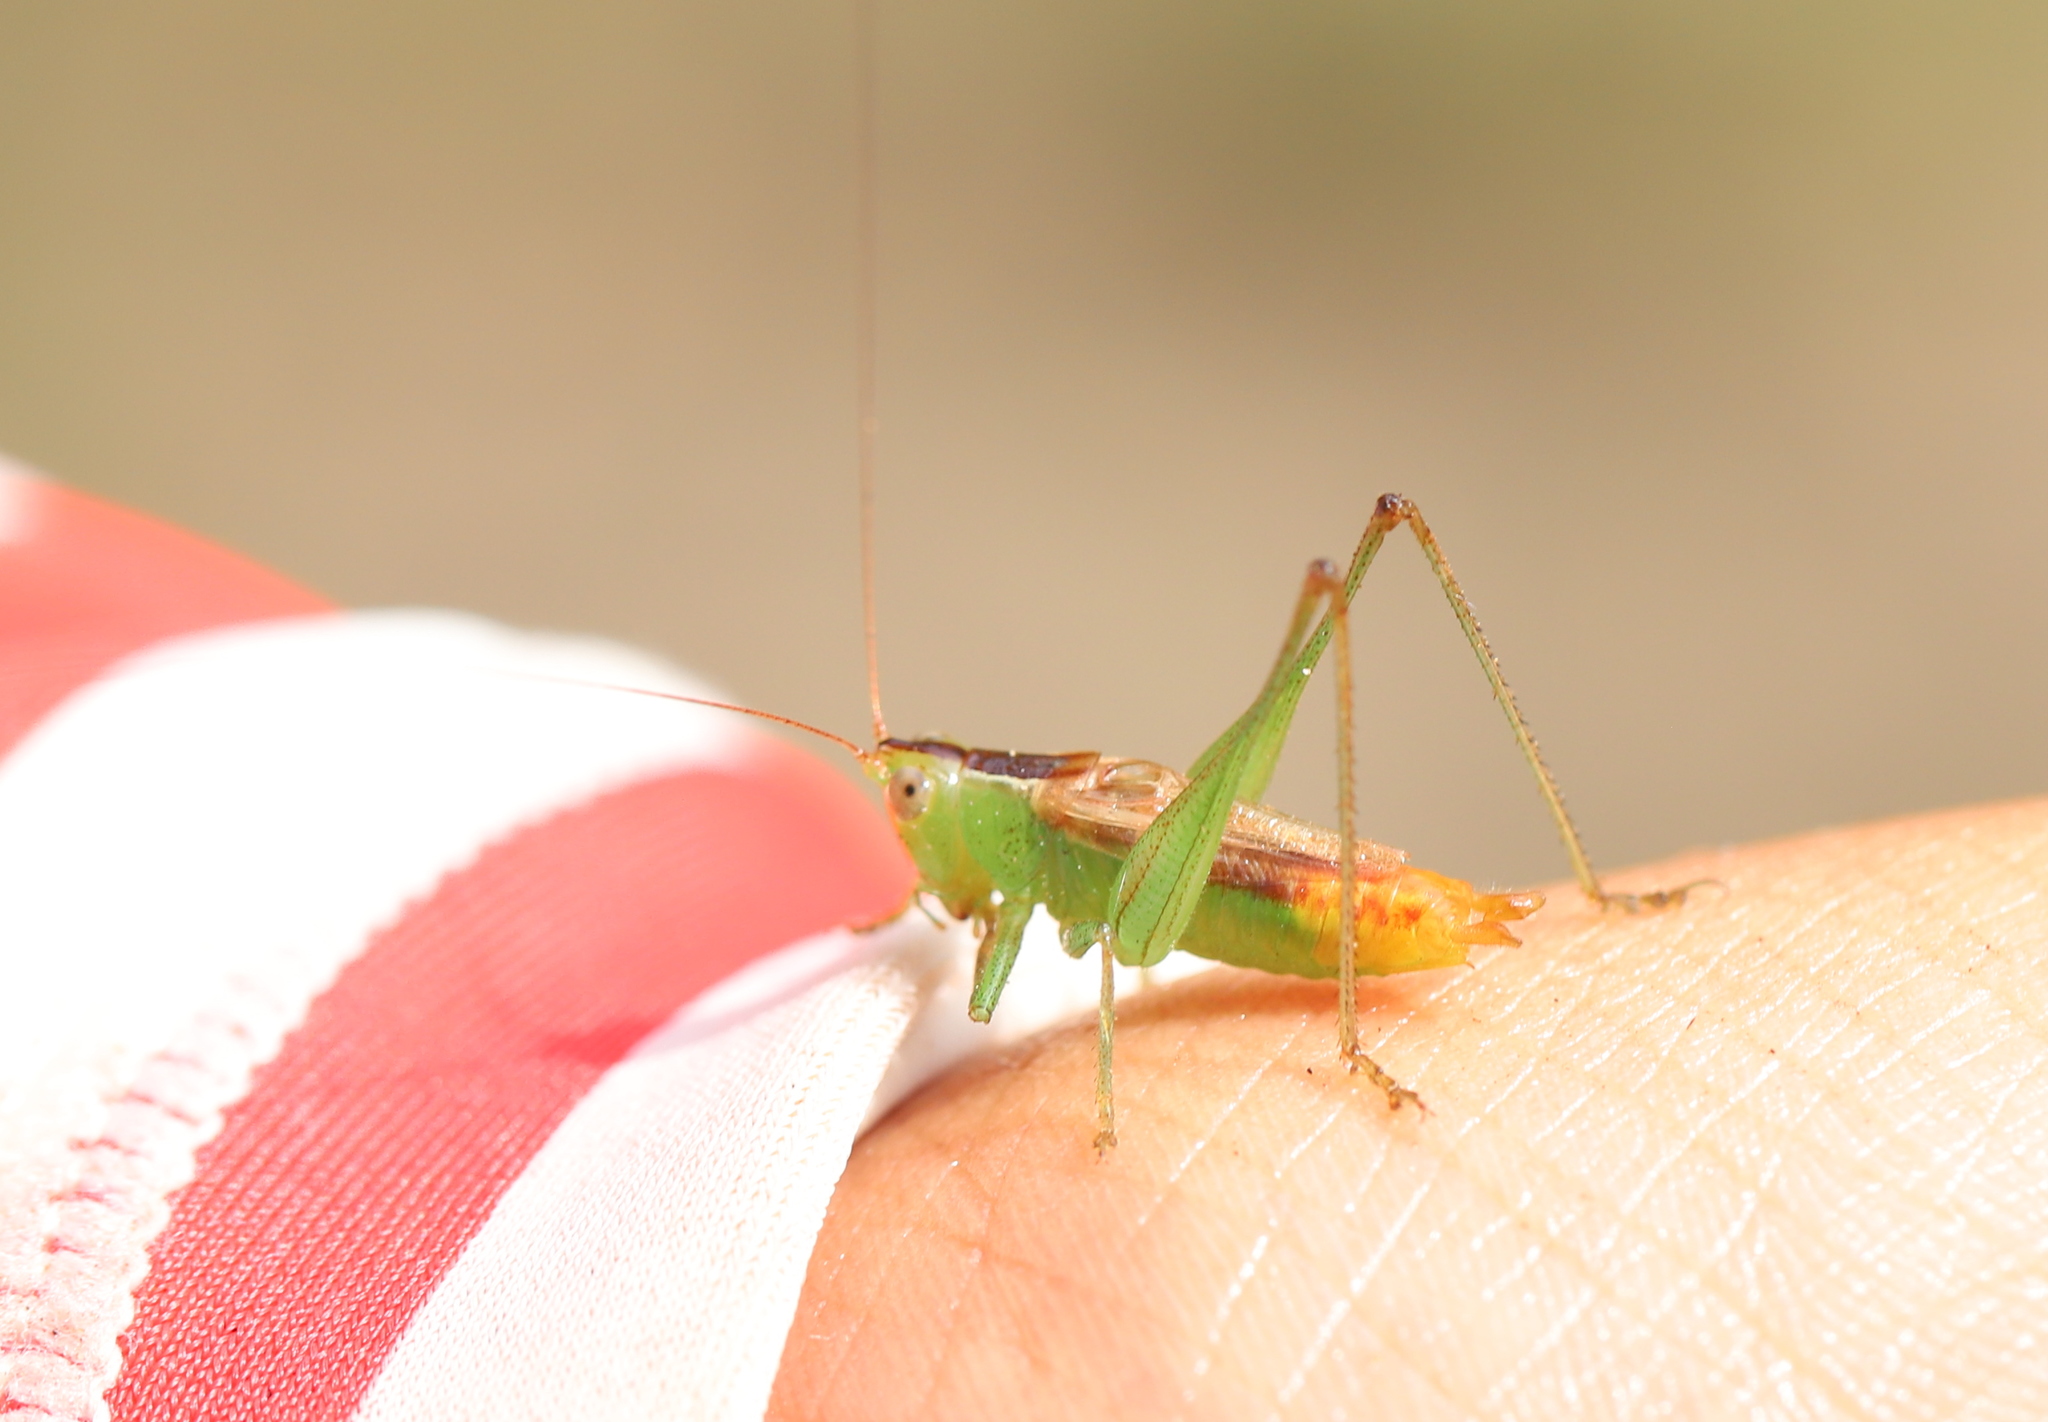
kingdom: Animalia
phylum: Arthropoda
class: Insecta
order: Orthoptera
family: Tettigoniidae
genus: Conocephalus
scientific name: Conocephalus brevipennis
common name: Short-winged meadow katydid
